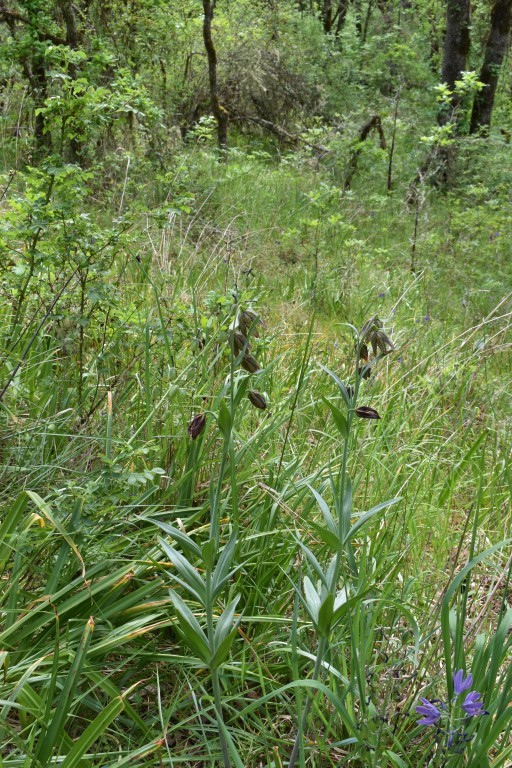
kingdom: Plantae
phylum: Tracheophyta
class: Liliopsida
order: Liliales
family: Liliaceae
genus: Fritillaria
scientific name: Fritillaria affinis
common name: Ojai fritillary
